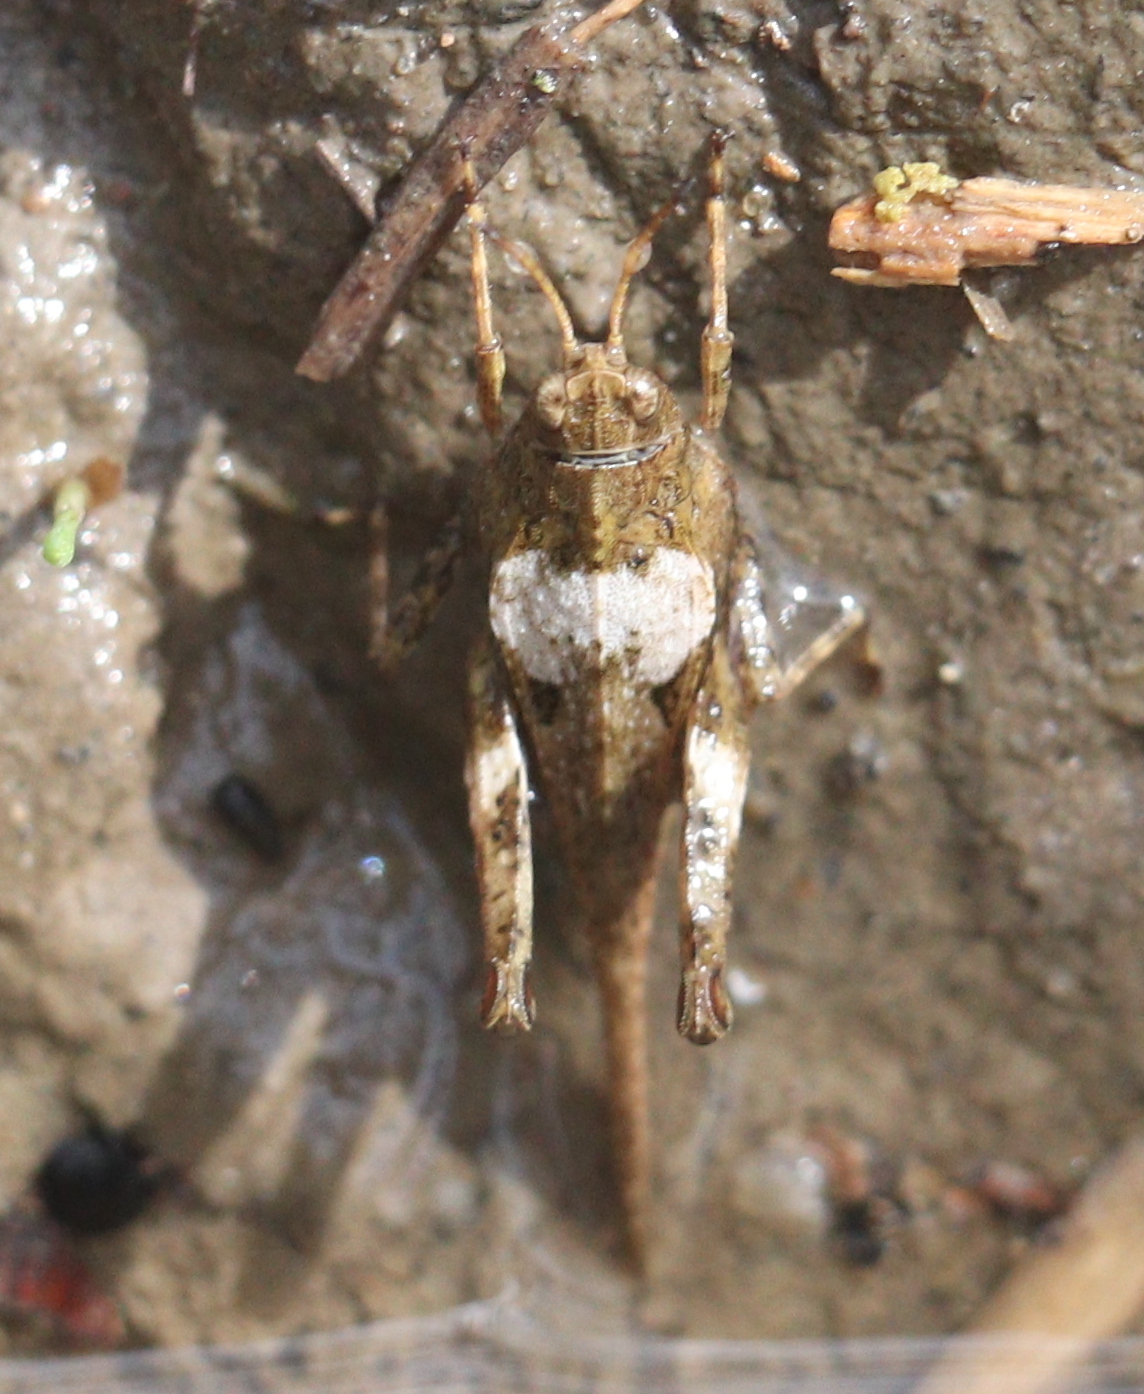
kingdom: Animalia
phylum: Arthropoda
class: Insecta
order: Orthoptera
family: Tetrigidae
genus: Tetrix
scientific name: Tetrix subulata
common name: Slender ground-hopper
